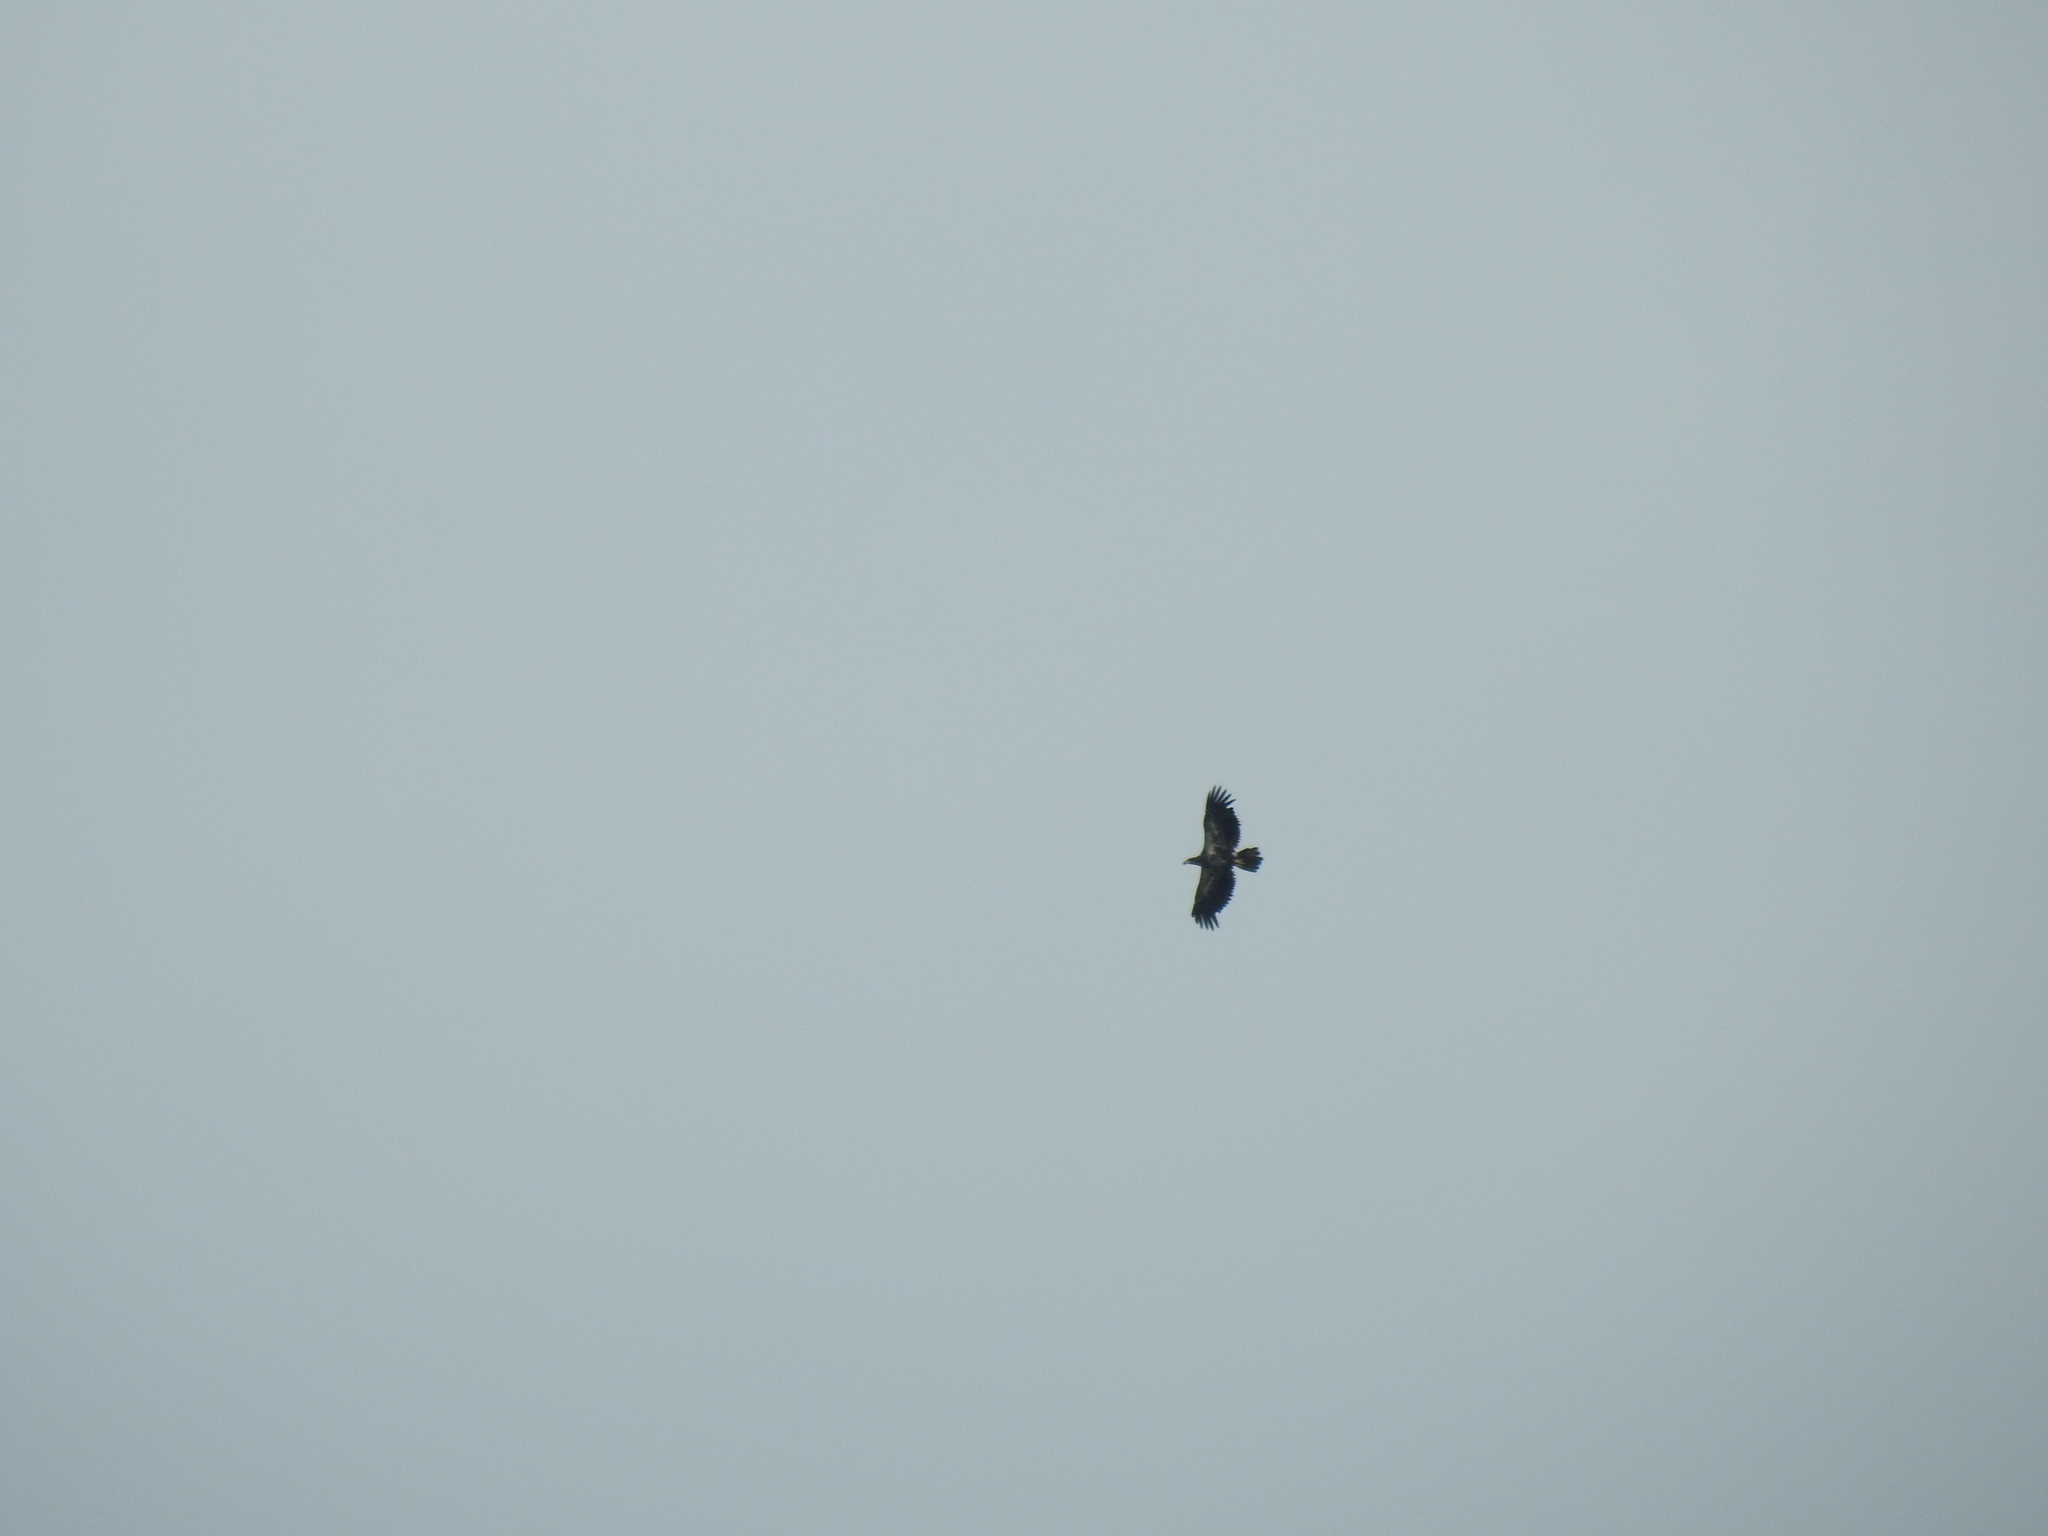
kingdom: Animalia
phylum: Chordata
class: Aves
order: Accipitriformes
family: Accipitridae
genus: Haliaeetus
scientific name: Haliaeetus leucocephalus
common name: Bald eagle
